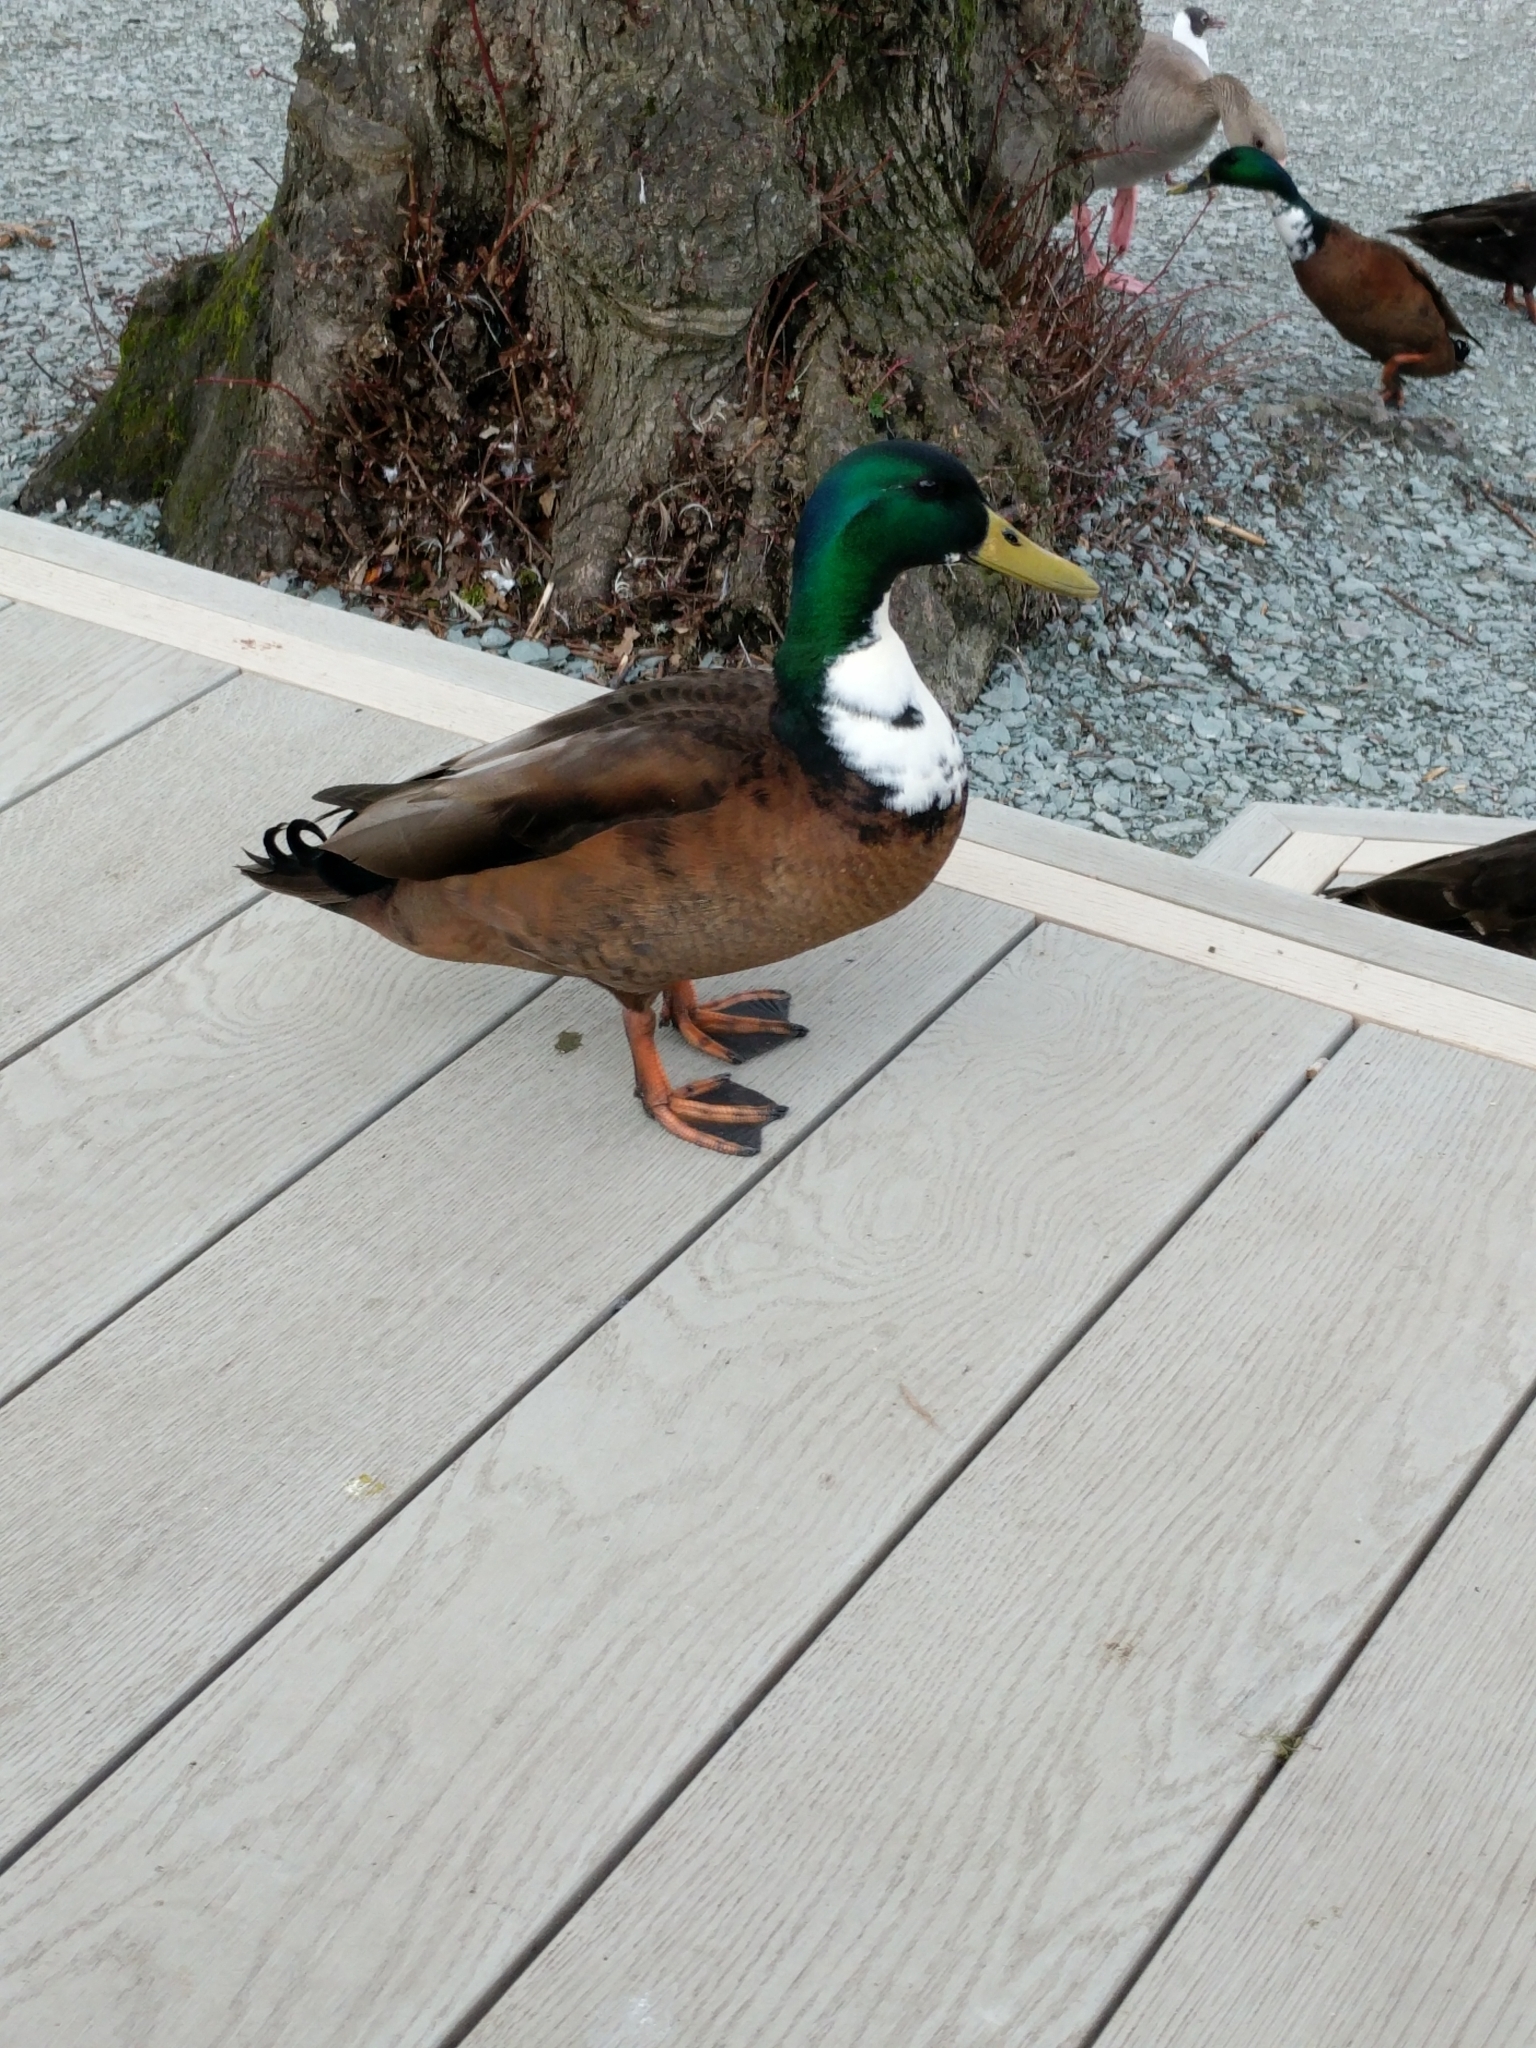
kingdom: Animalia
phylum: Chordata
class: Aves
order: Anseriformes
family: Anatidae
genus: Anas
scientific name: Anas platyrhynchos
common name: Mallard
